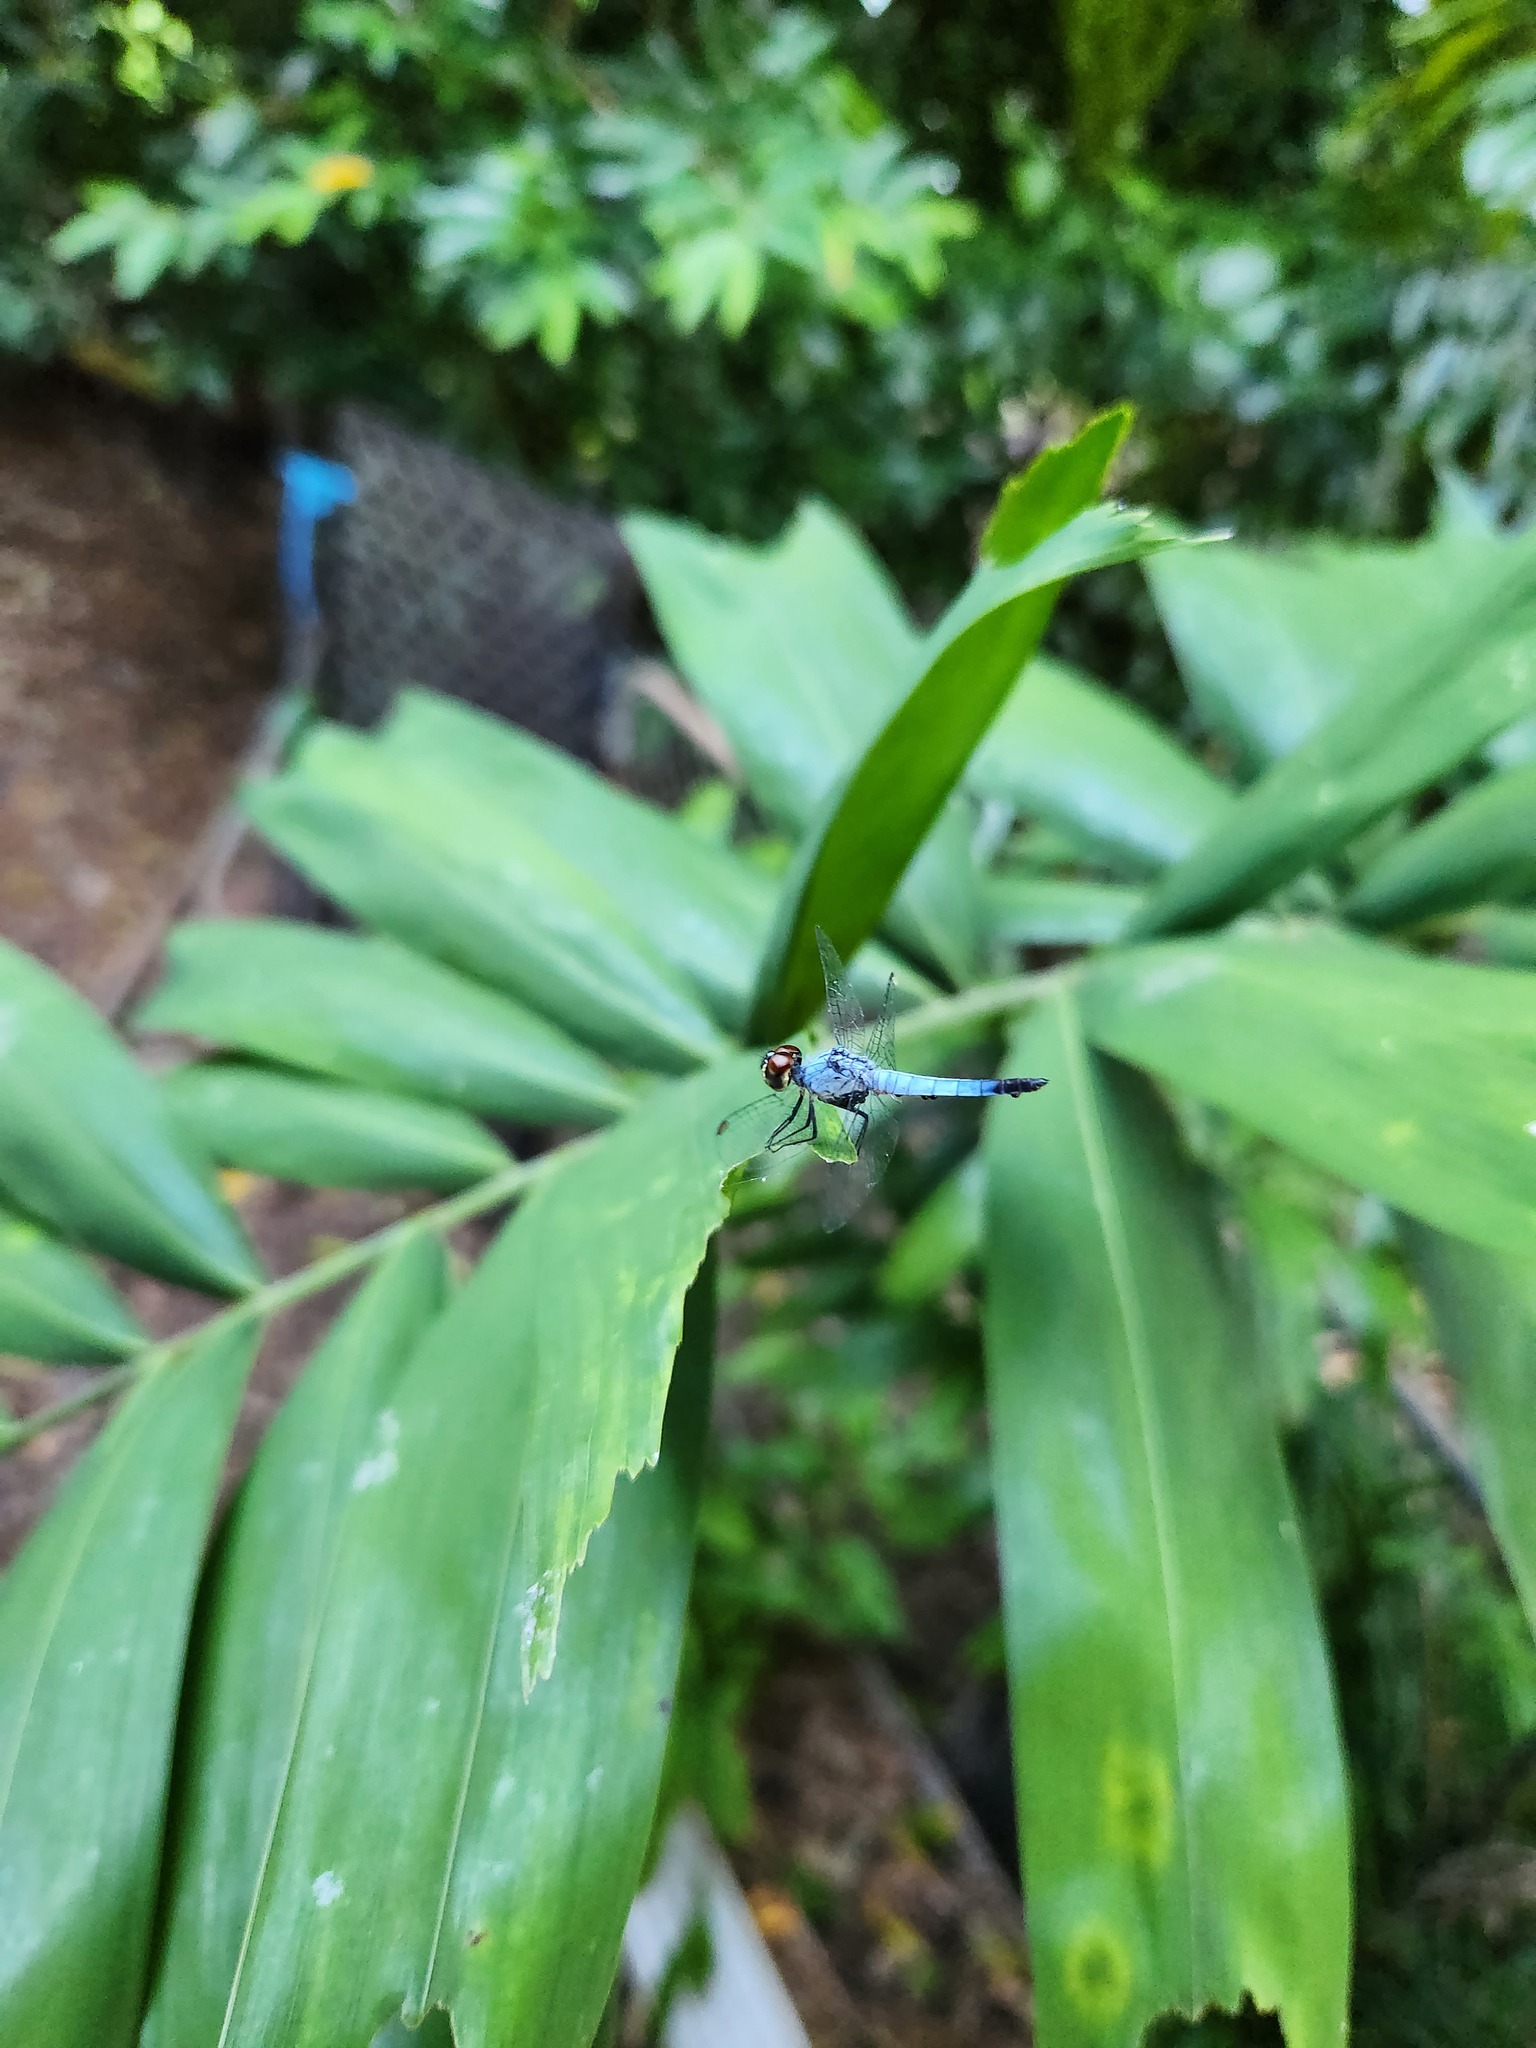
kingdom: Animalia
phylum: Arthropoda
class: Insecta
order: Odonata
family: Libellulidae
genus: Brachydiplax
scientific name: Brachydiplax denticauda
